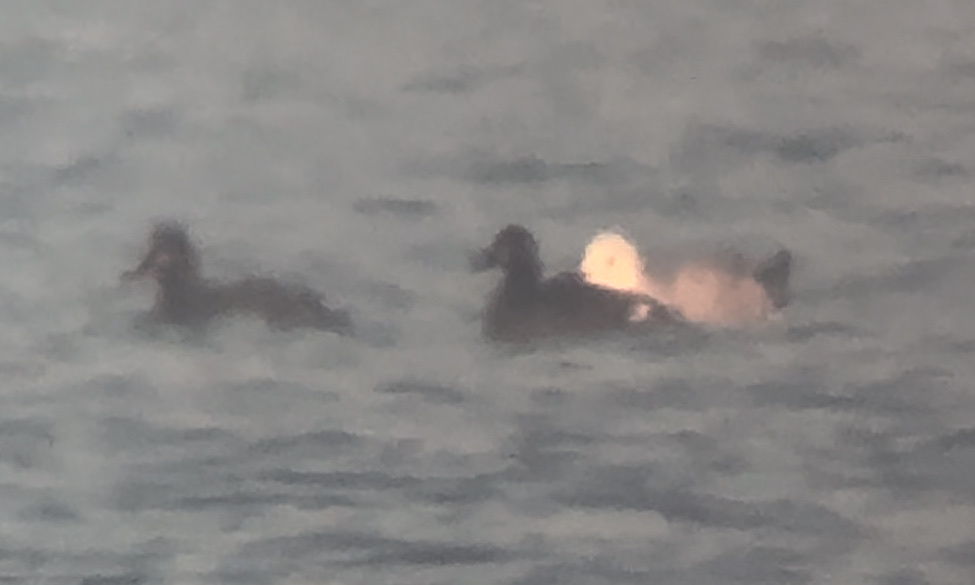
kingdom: Animalia
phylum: Chordata
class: Aves
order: Anseriformes
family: Anatidae
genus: Melanitta
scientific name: Melanitta fusca
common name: Velvet scoter
